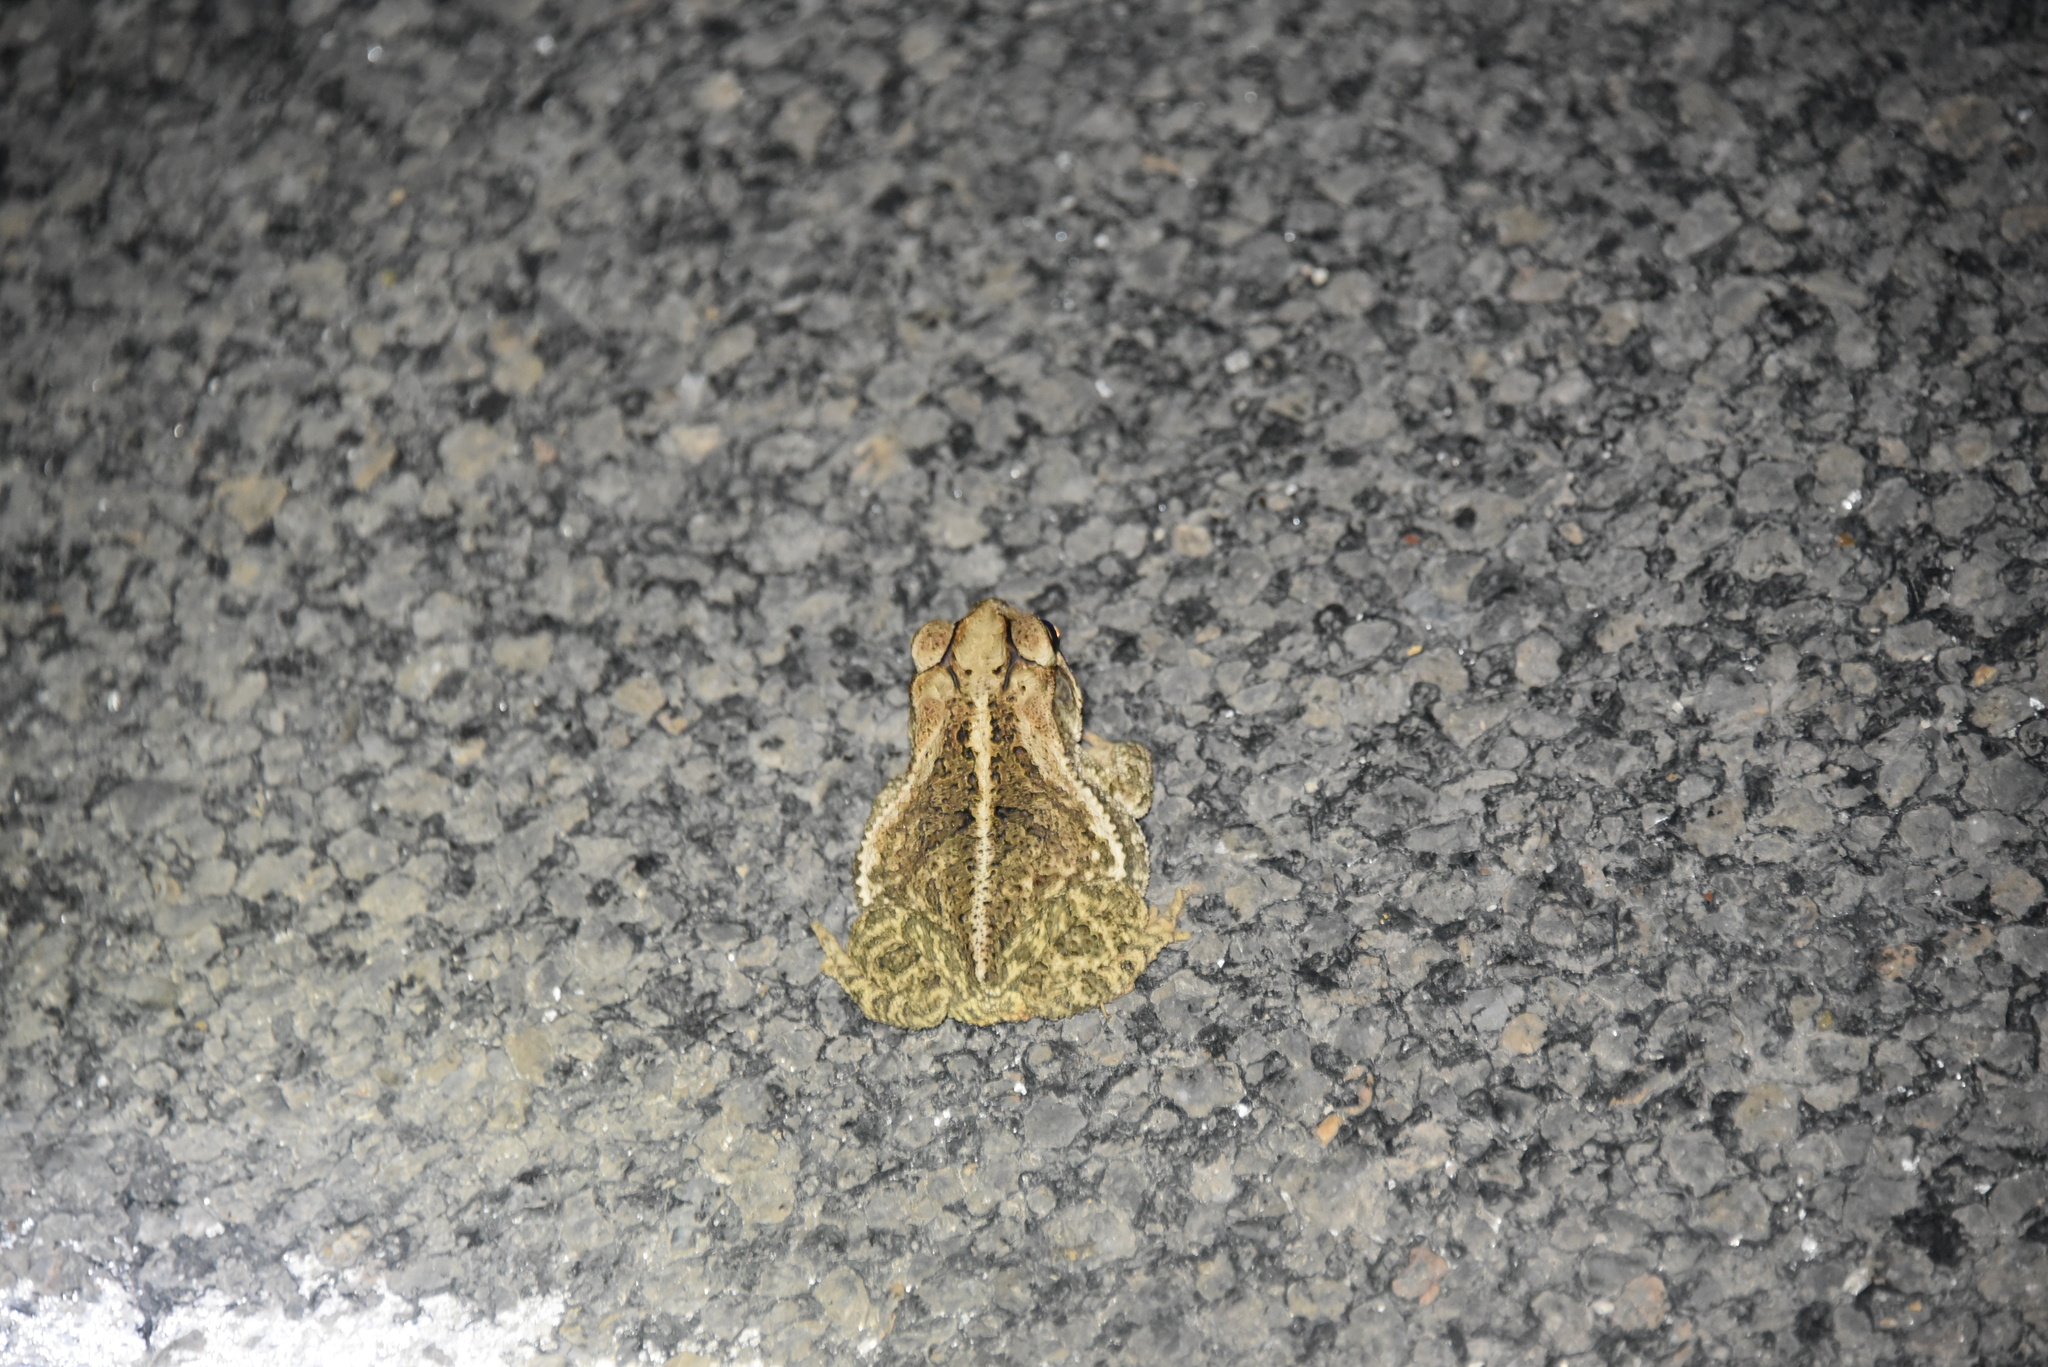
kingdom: Animalia
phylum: Chordata
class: Amphibia
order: Anura
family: Bufonidae
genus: Incilius
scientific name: Incilius nebulifer
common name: Gulf coast toad
